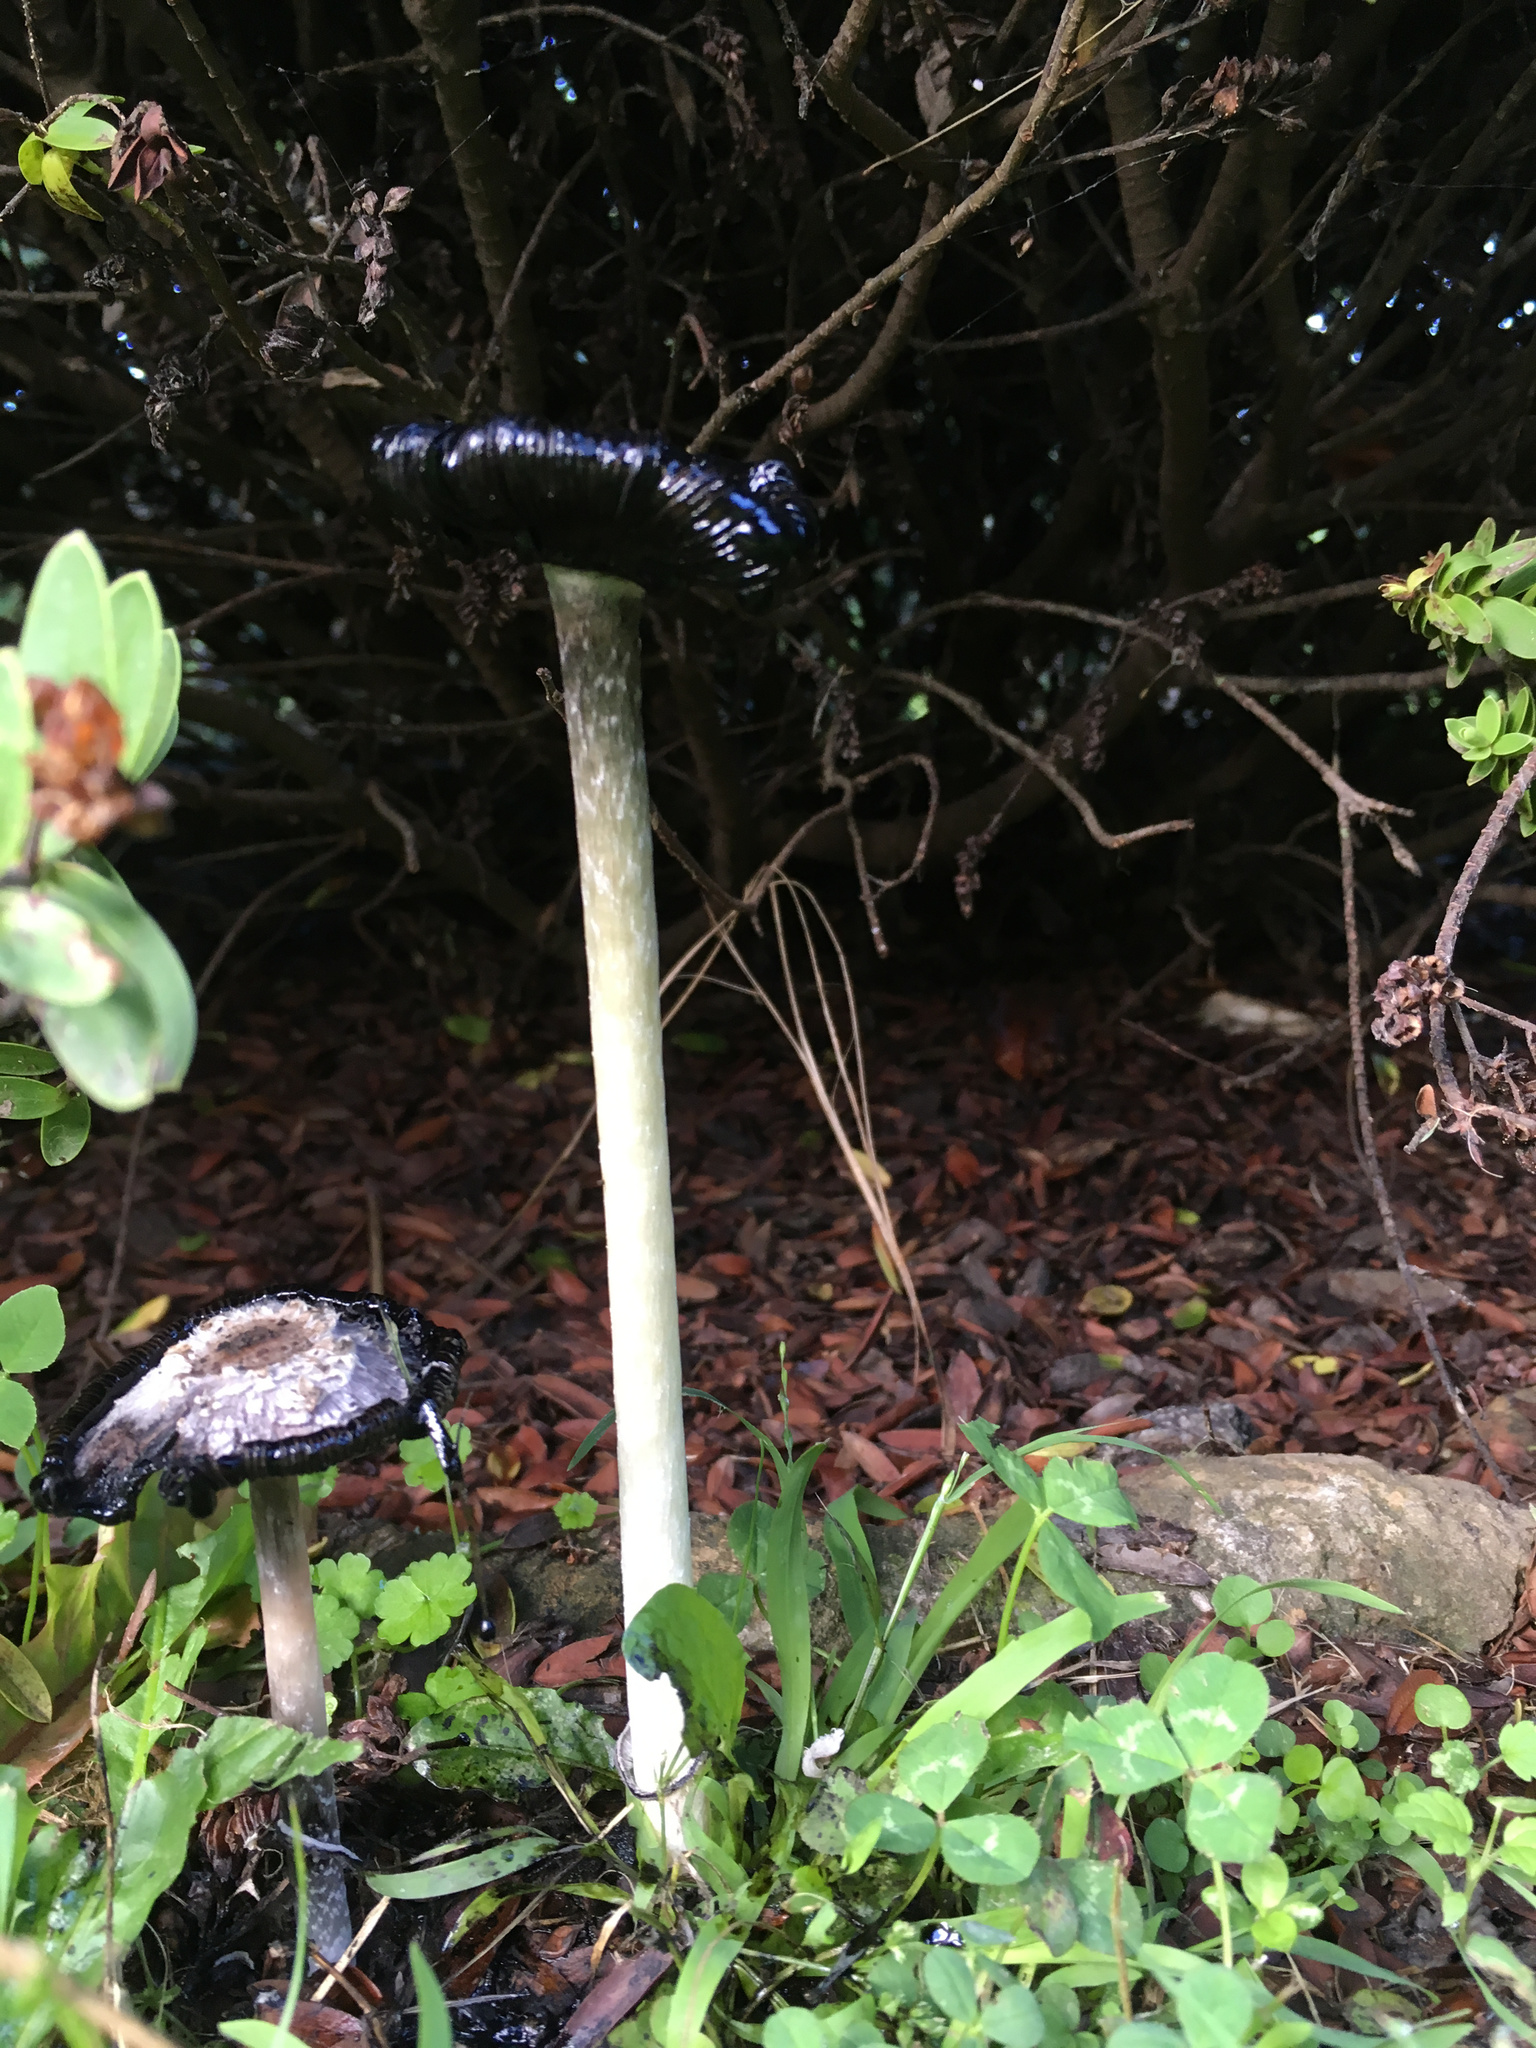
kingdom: Fungi
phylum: Basidiomycota
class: Agaricomycetes
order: Agaricales
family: Agaricaceae
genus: Coprinus
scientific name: Coprinus comatus
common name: Lawyer's wig
